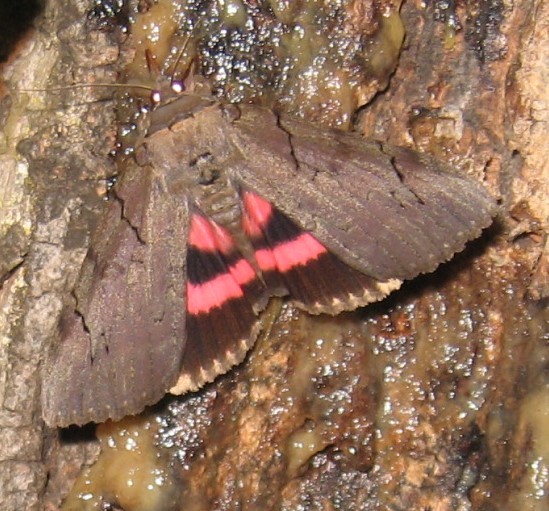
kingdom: Animalia
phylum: Arthropoda
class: Insecta
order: Lepidoptera
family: Erebidae
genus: Catocala
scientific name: Catocala cara
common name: Darling underwing
